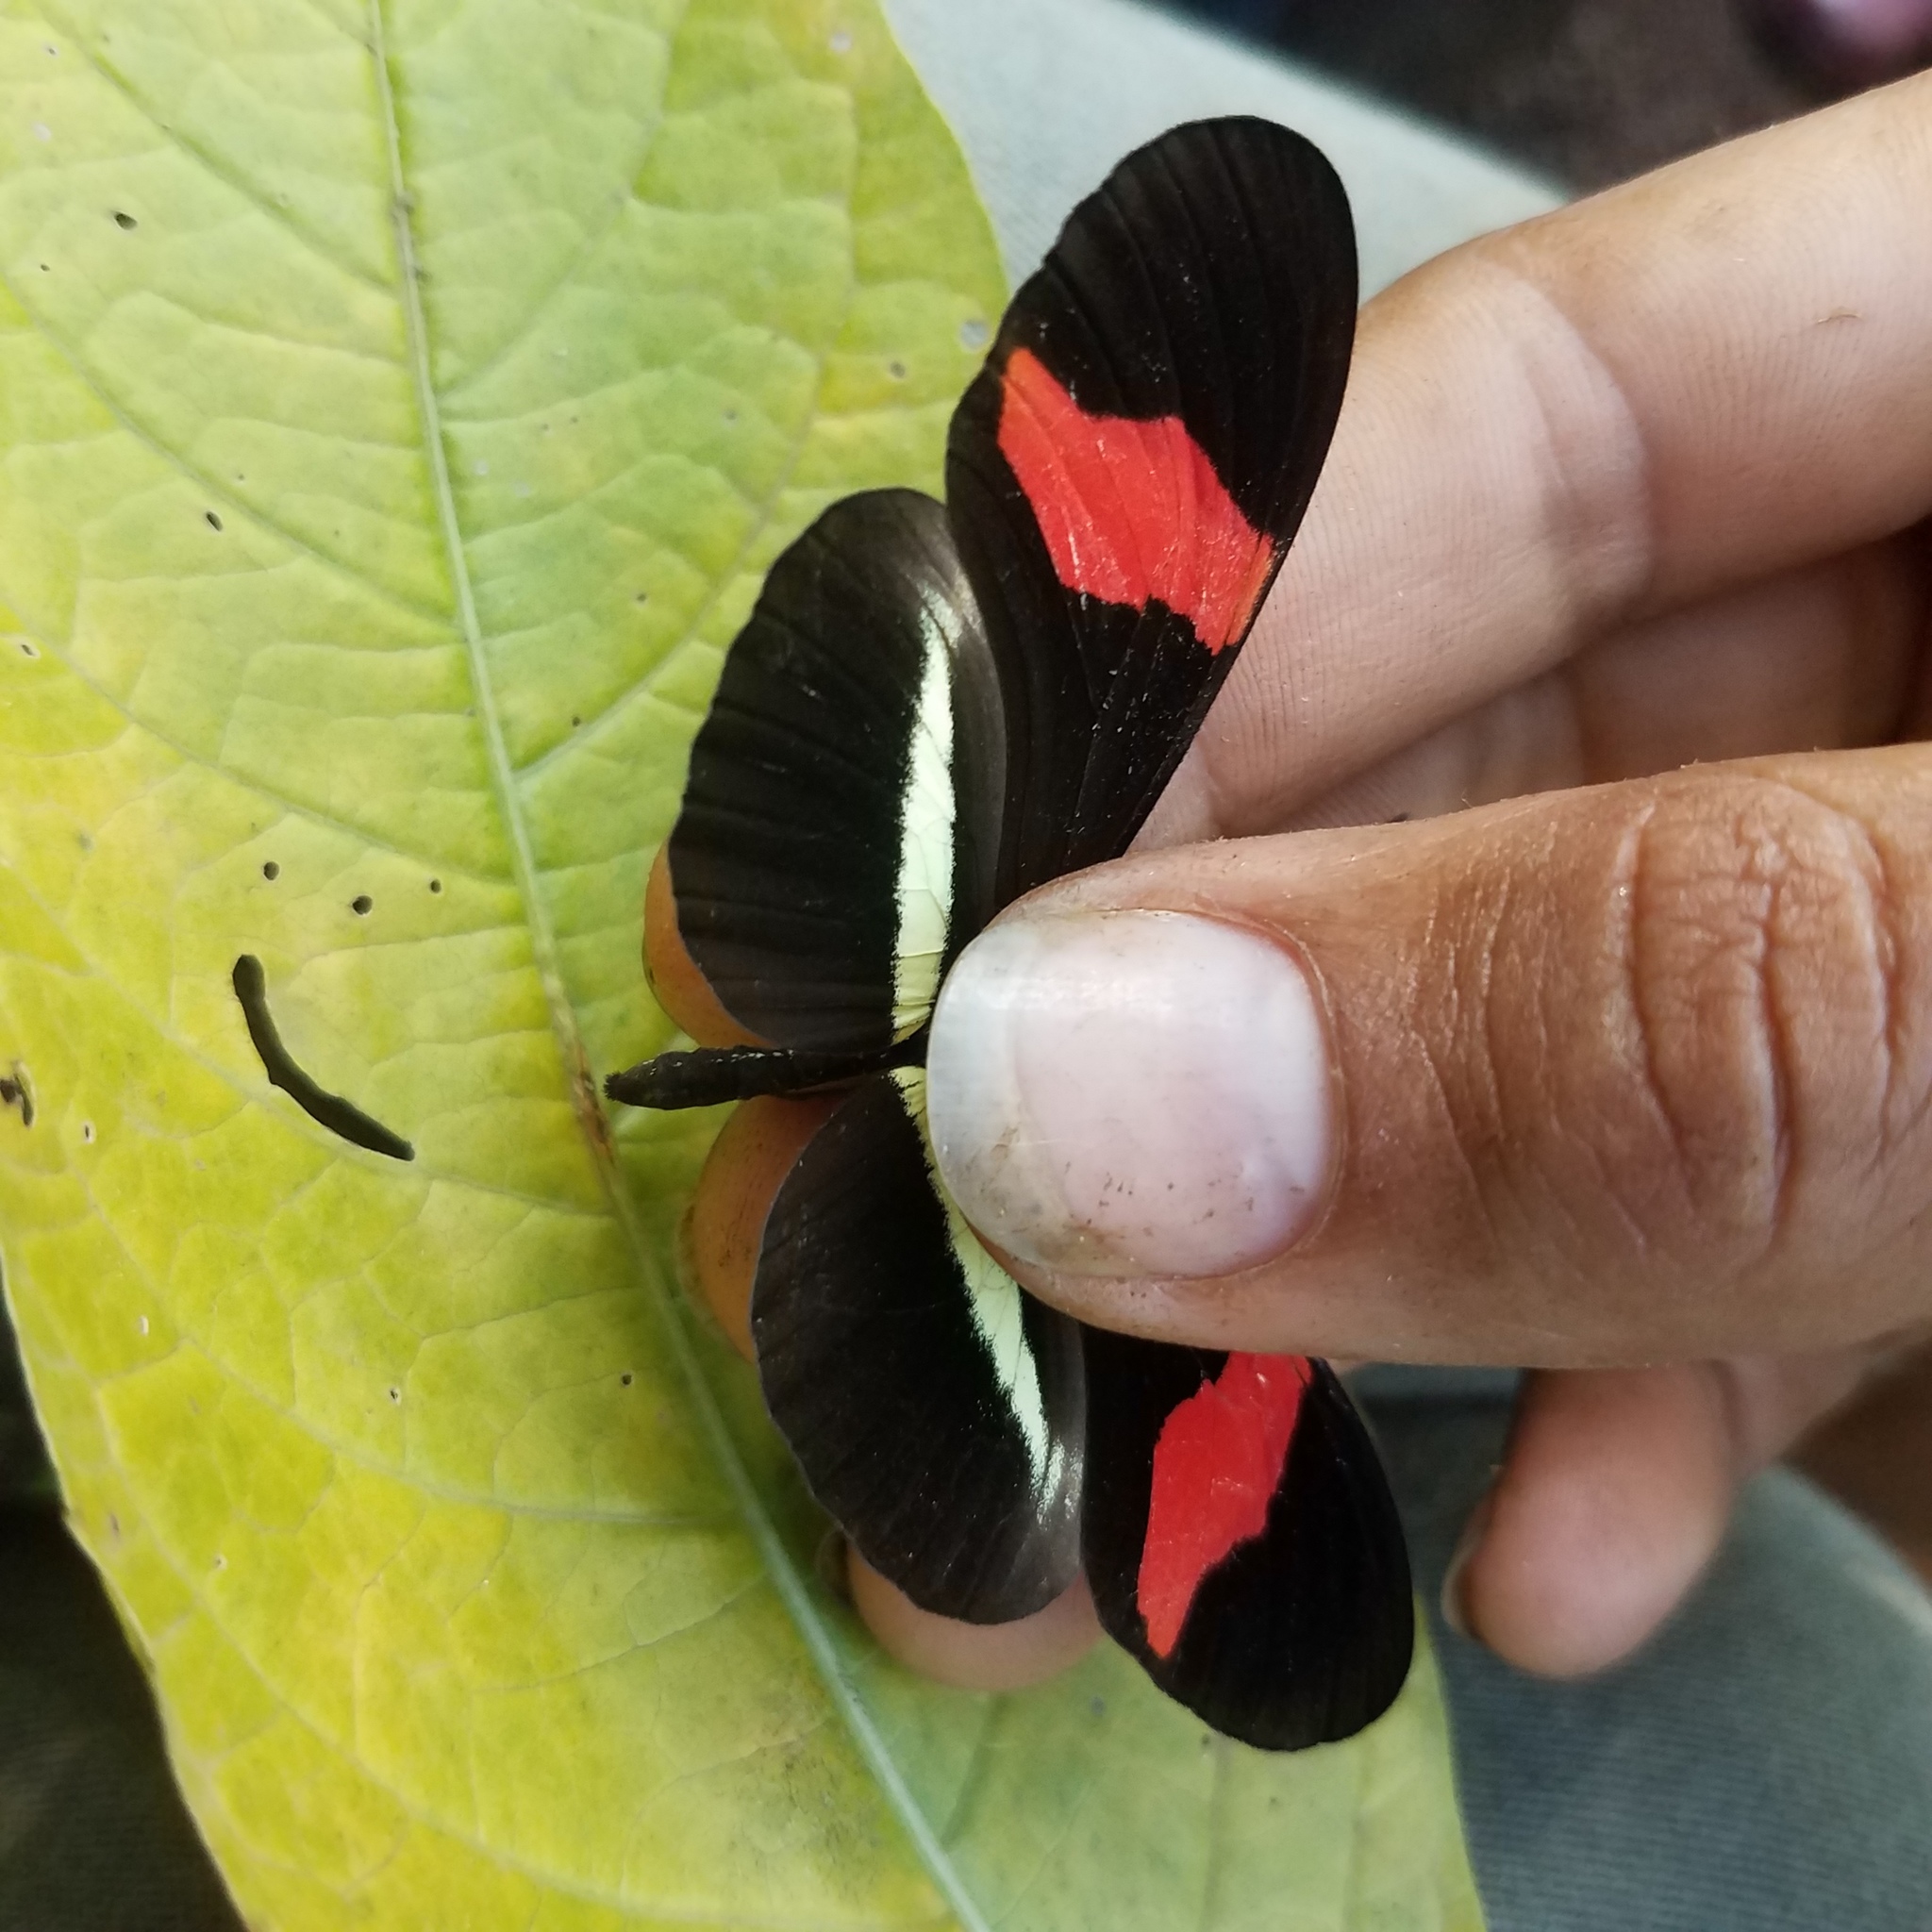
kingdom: Animalia
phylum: Arthropoda
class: Insecta
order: Lepidoptera
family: Nymphalidae
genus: Tirumala
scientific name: Tirumala petiverana
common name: Blue monarch
